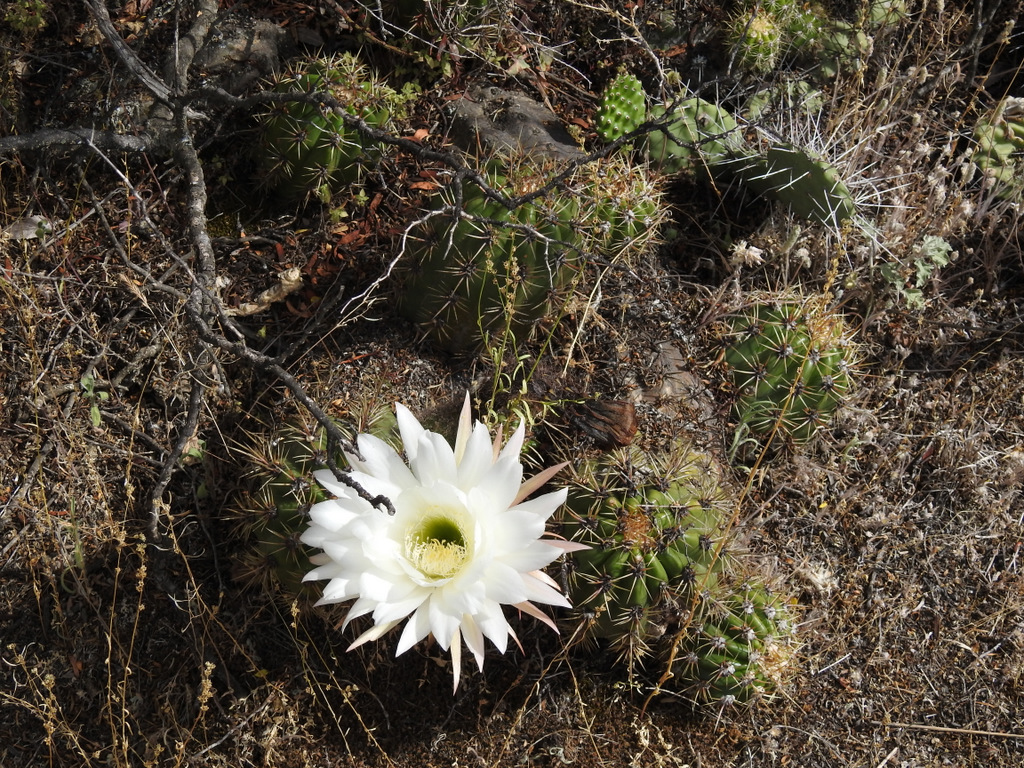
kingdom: Plantae
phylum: Tracheophyta
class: Magnoliopsida
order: Caryophyllales
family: Cactaceae
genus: Soehrensia
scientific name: Soehrensia candicans
